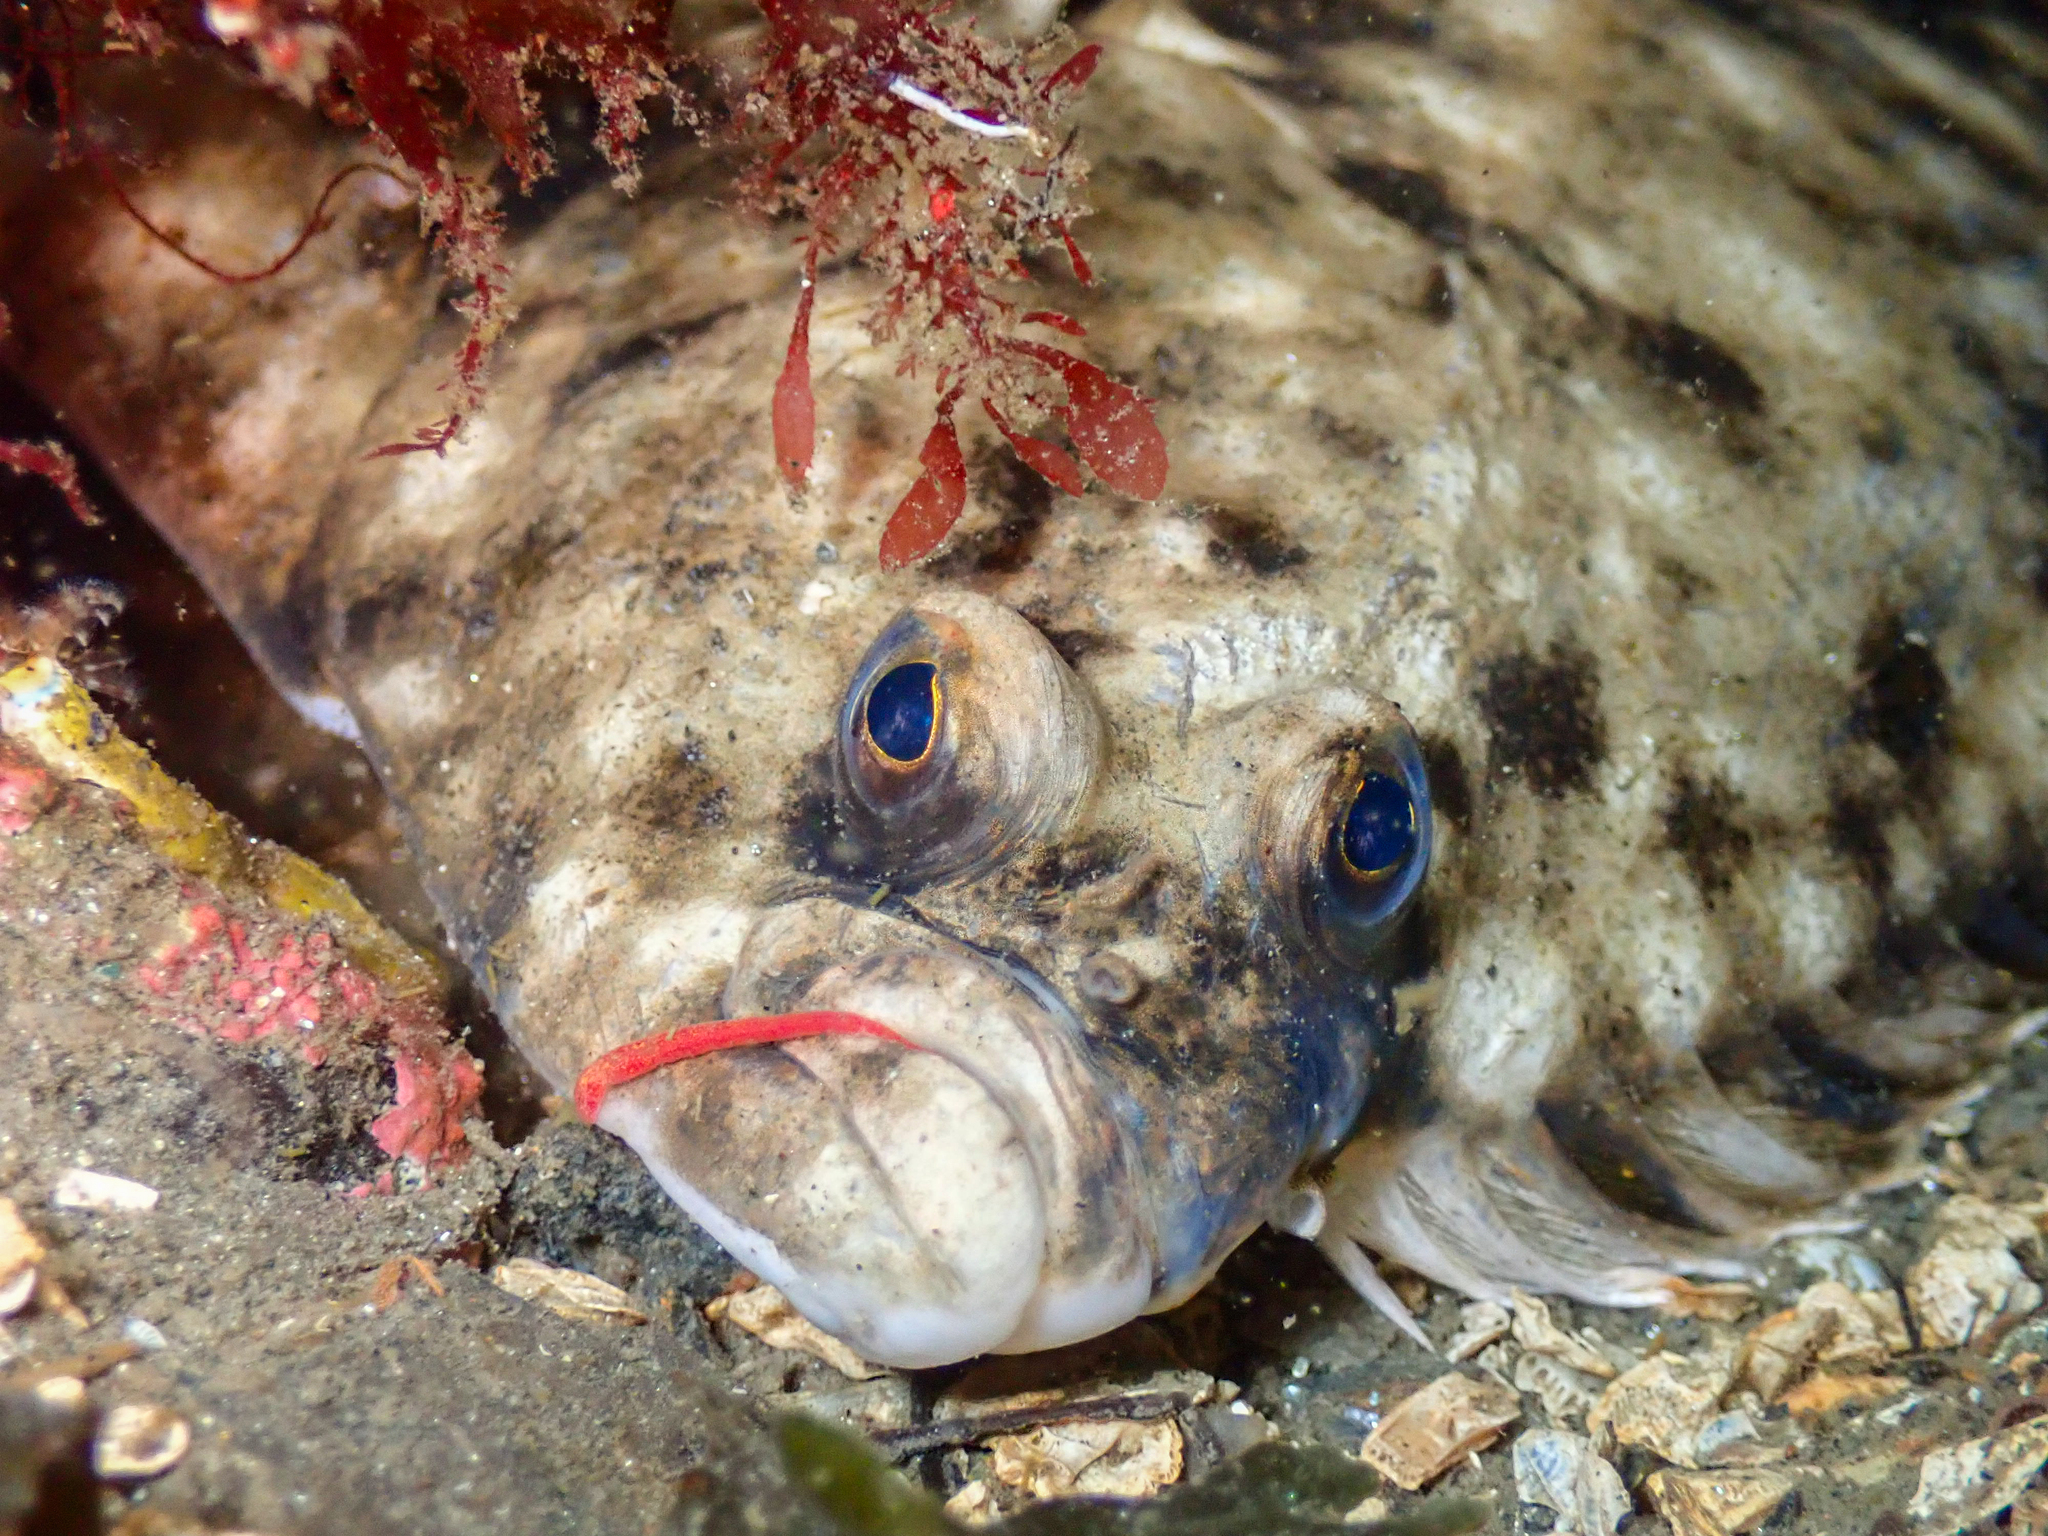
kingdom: Animalia
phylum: Chordata
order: Pleuronectiformes
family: Pleuronectidae
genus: Platichthys
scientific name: Platichthys flesus
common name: European flounder
